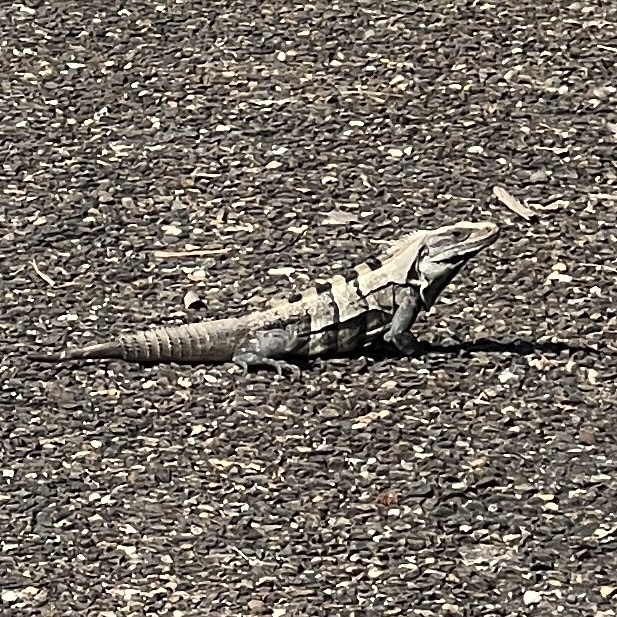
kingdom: Animalia
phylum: Chordata
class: Squamata
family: Iguanidae
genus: Ctenosaura
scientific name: Ctenosaura similis
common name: Black spiny-tailed iguana
